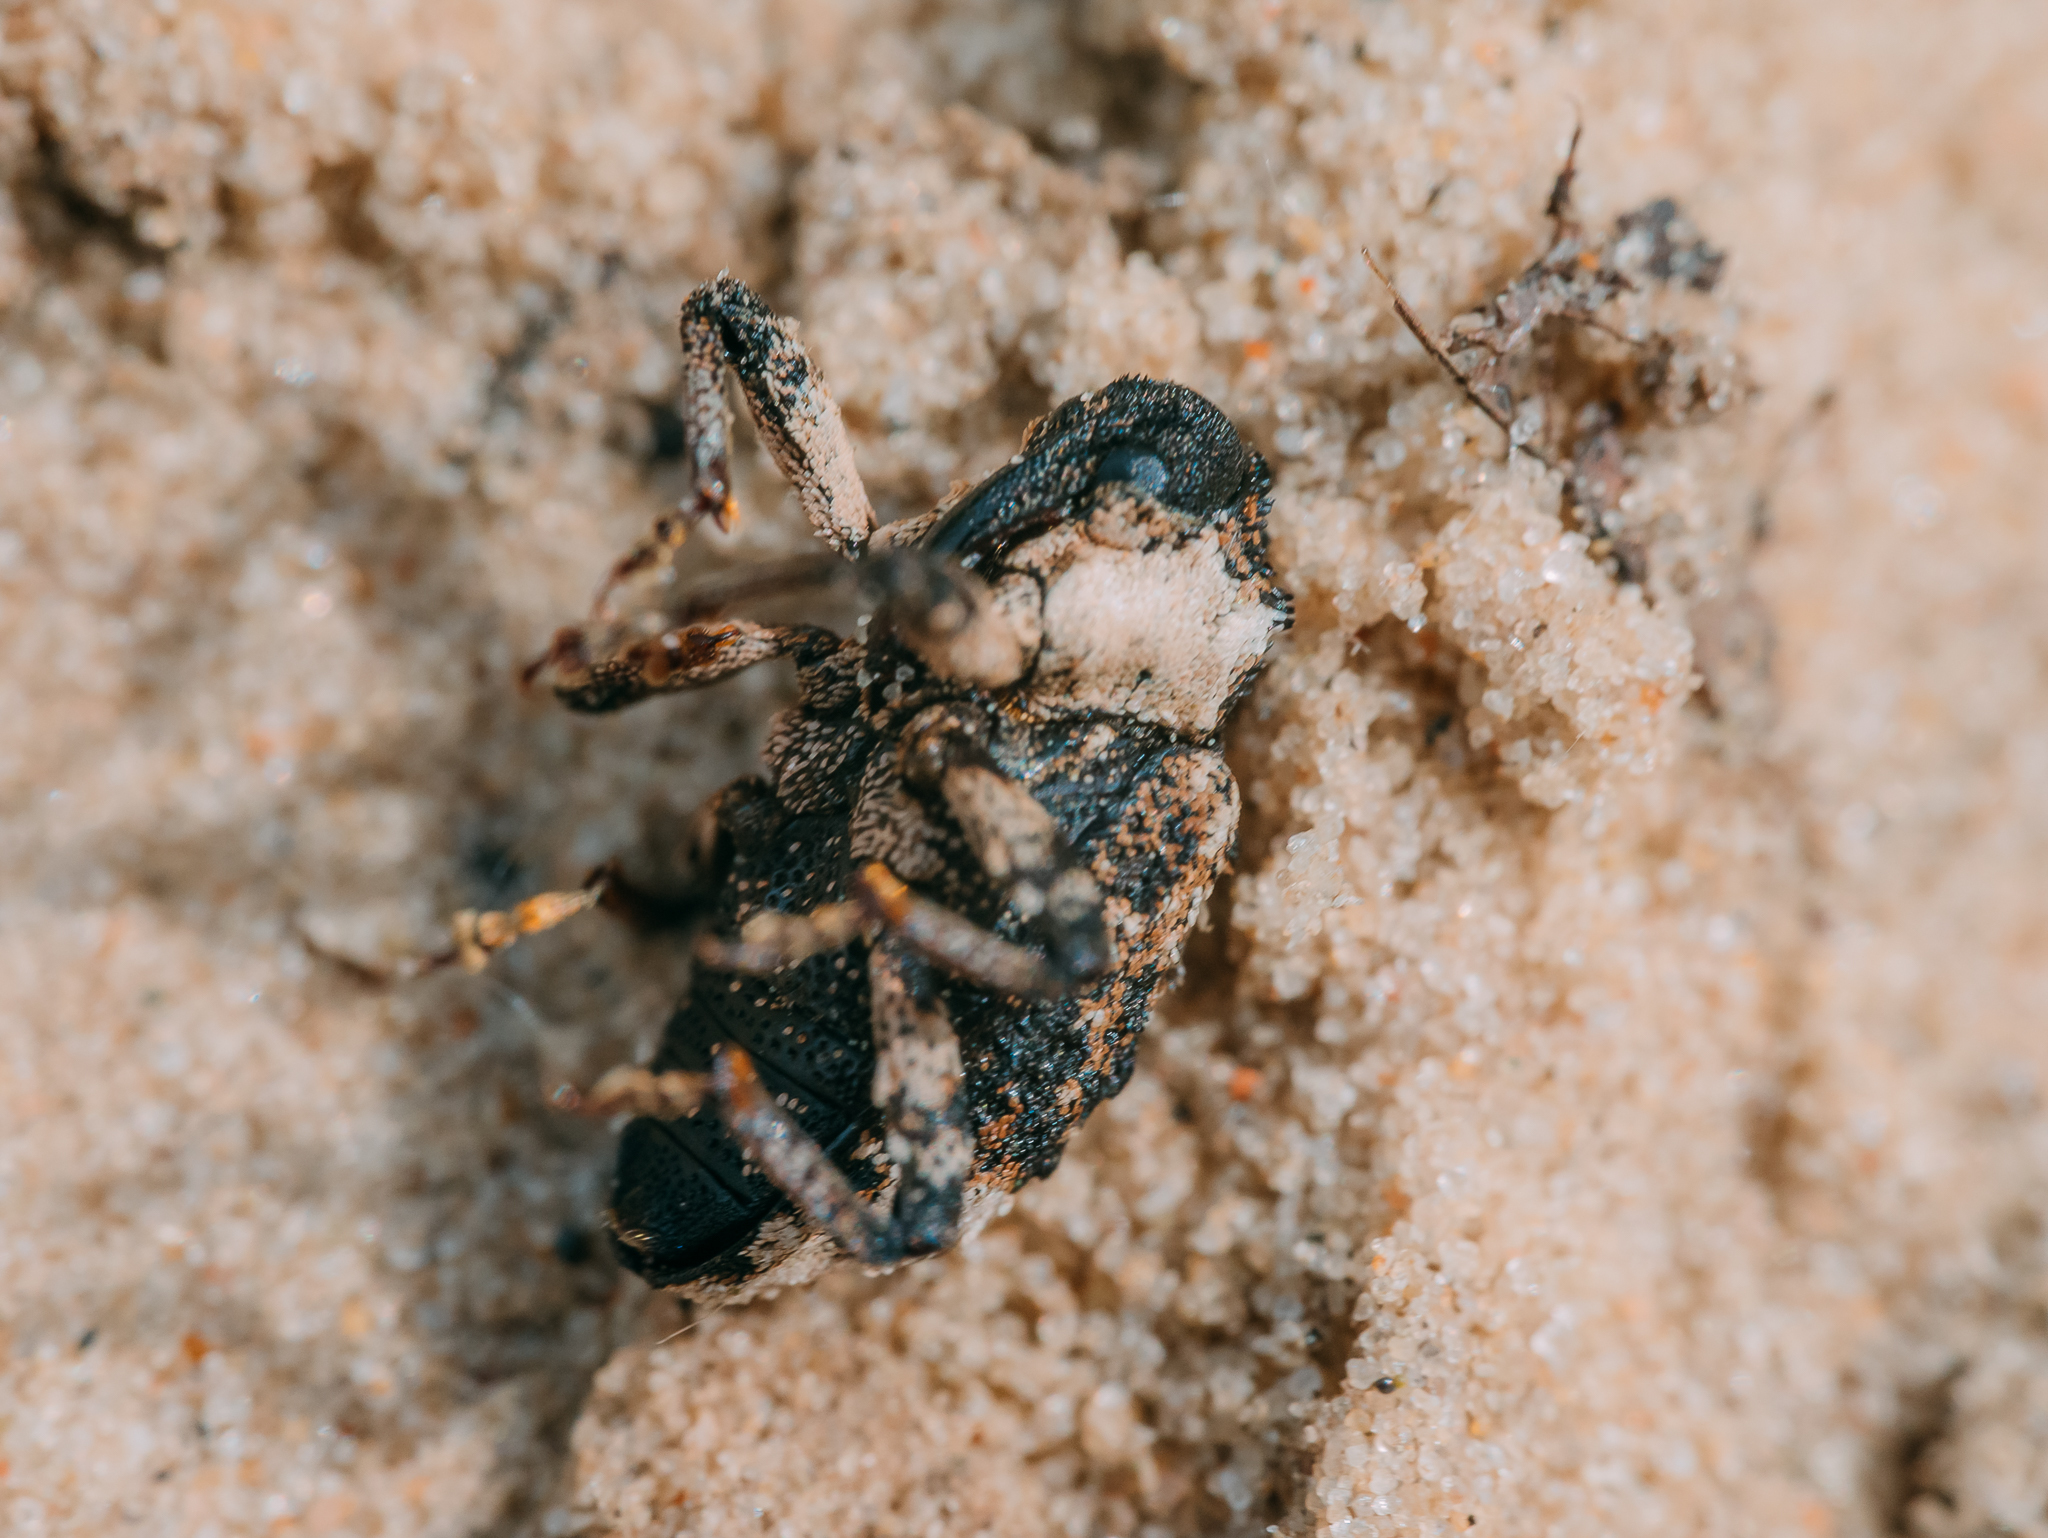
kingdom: Animalia
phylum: Arthropoda
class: Insecta
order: Coleoptera
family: Curculionidae
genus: Cryptorhynchus
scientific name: Cryptorhynchus lapathi
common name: Weevil
